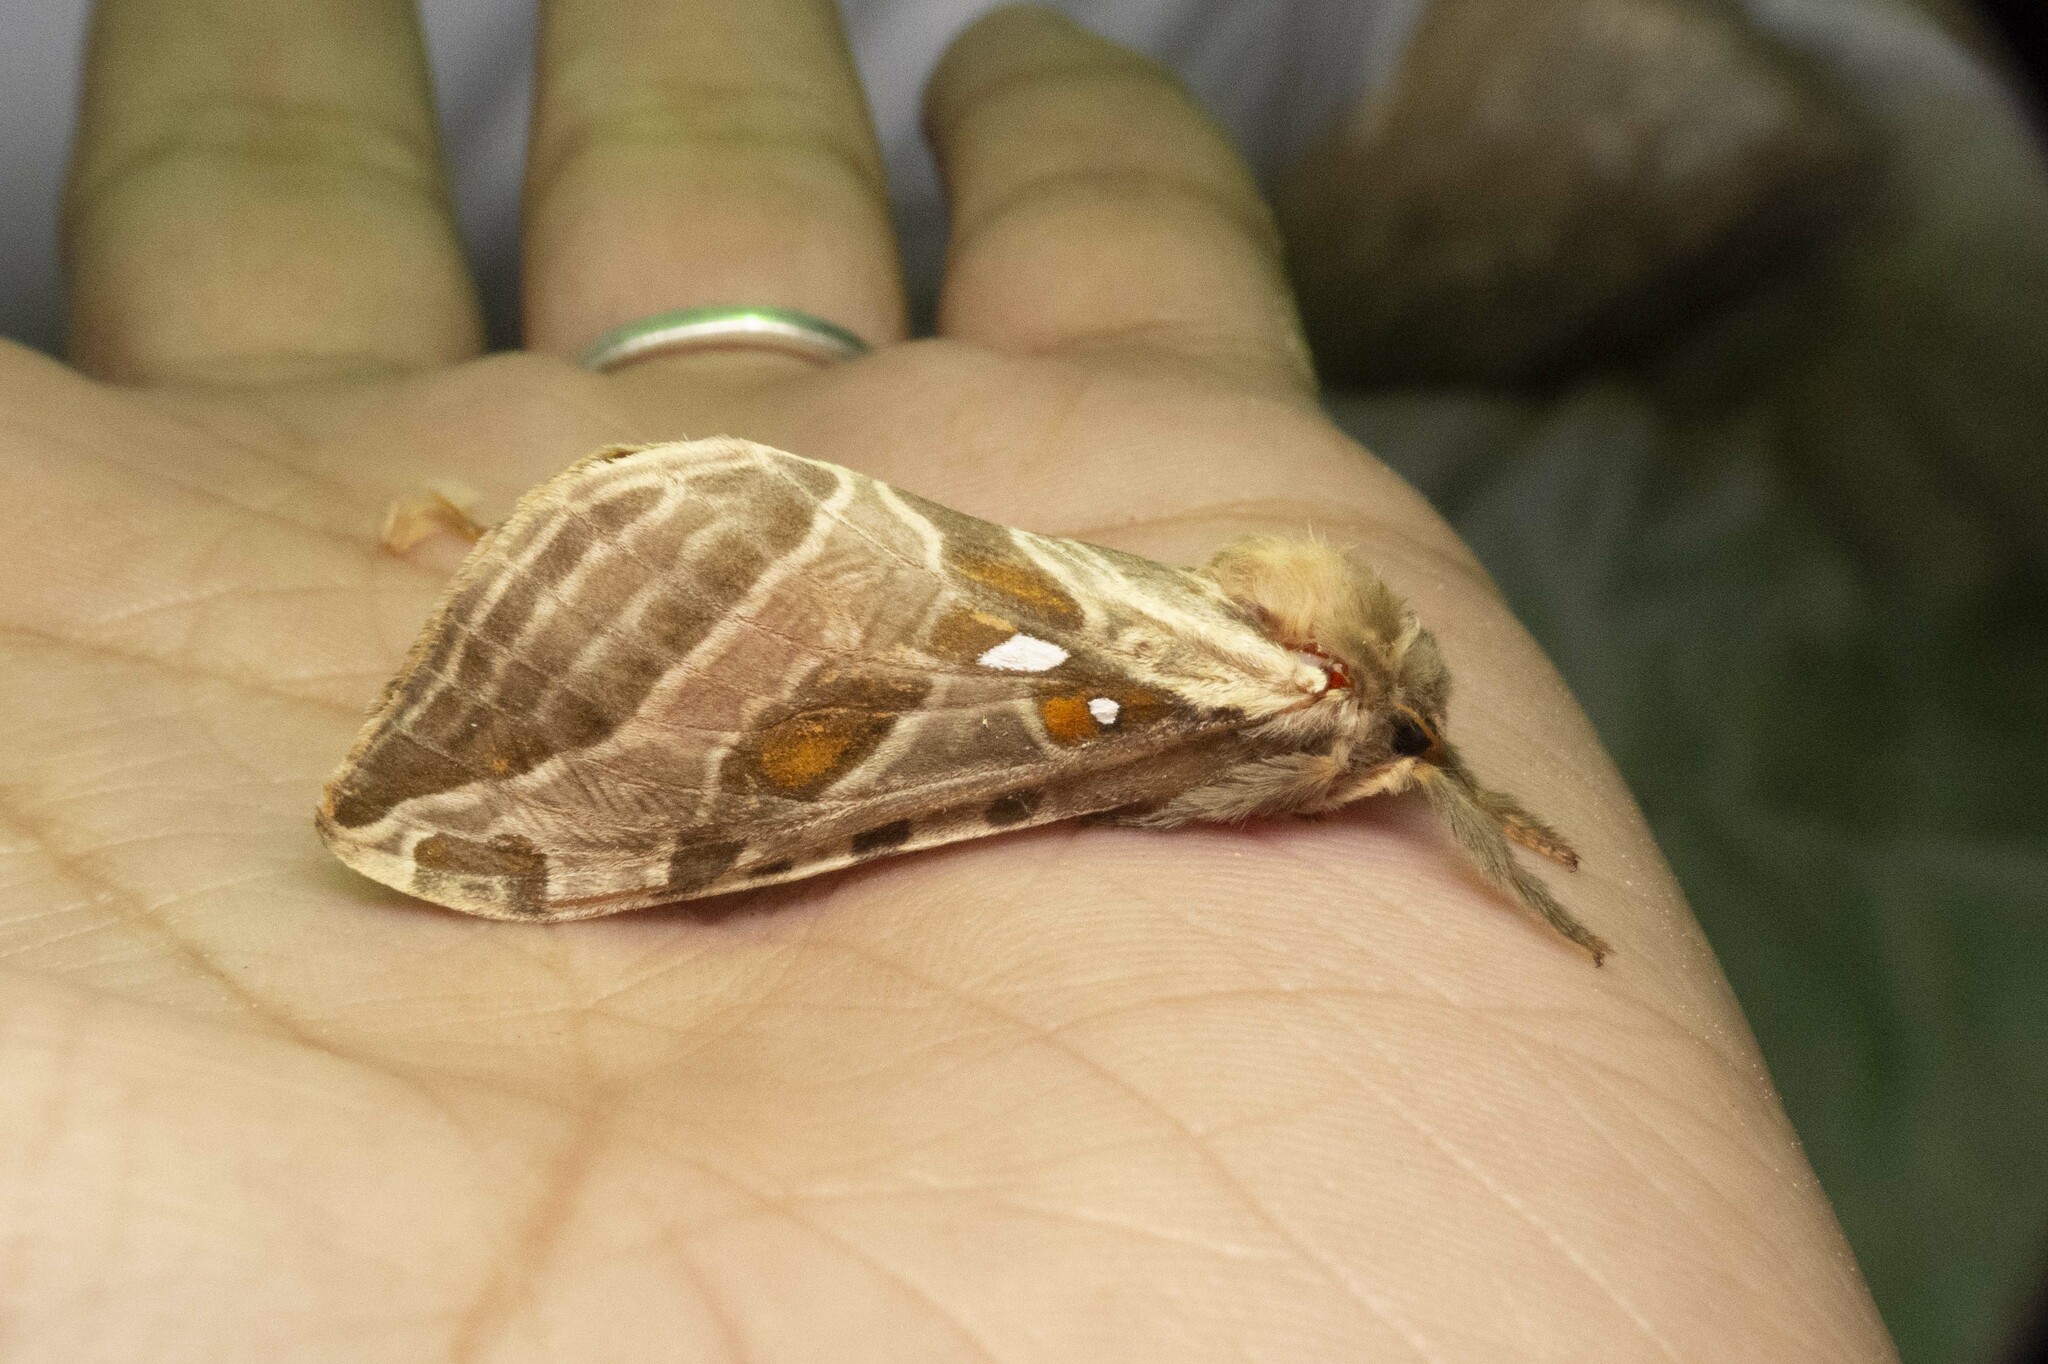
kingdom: Animalia
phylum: Arthropoda
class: Insecta
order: Lepidoptera
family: Hepialidae
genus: Sthenopis
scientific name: Sthenopis argenteomaculatus
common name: Silver-spotted ghost moth
